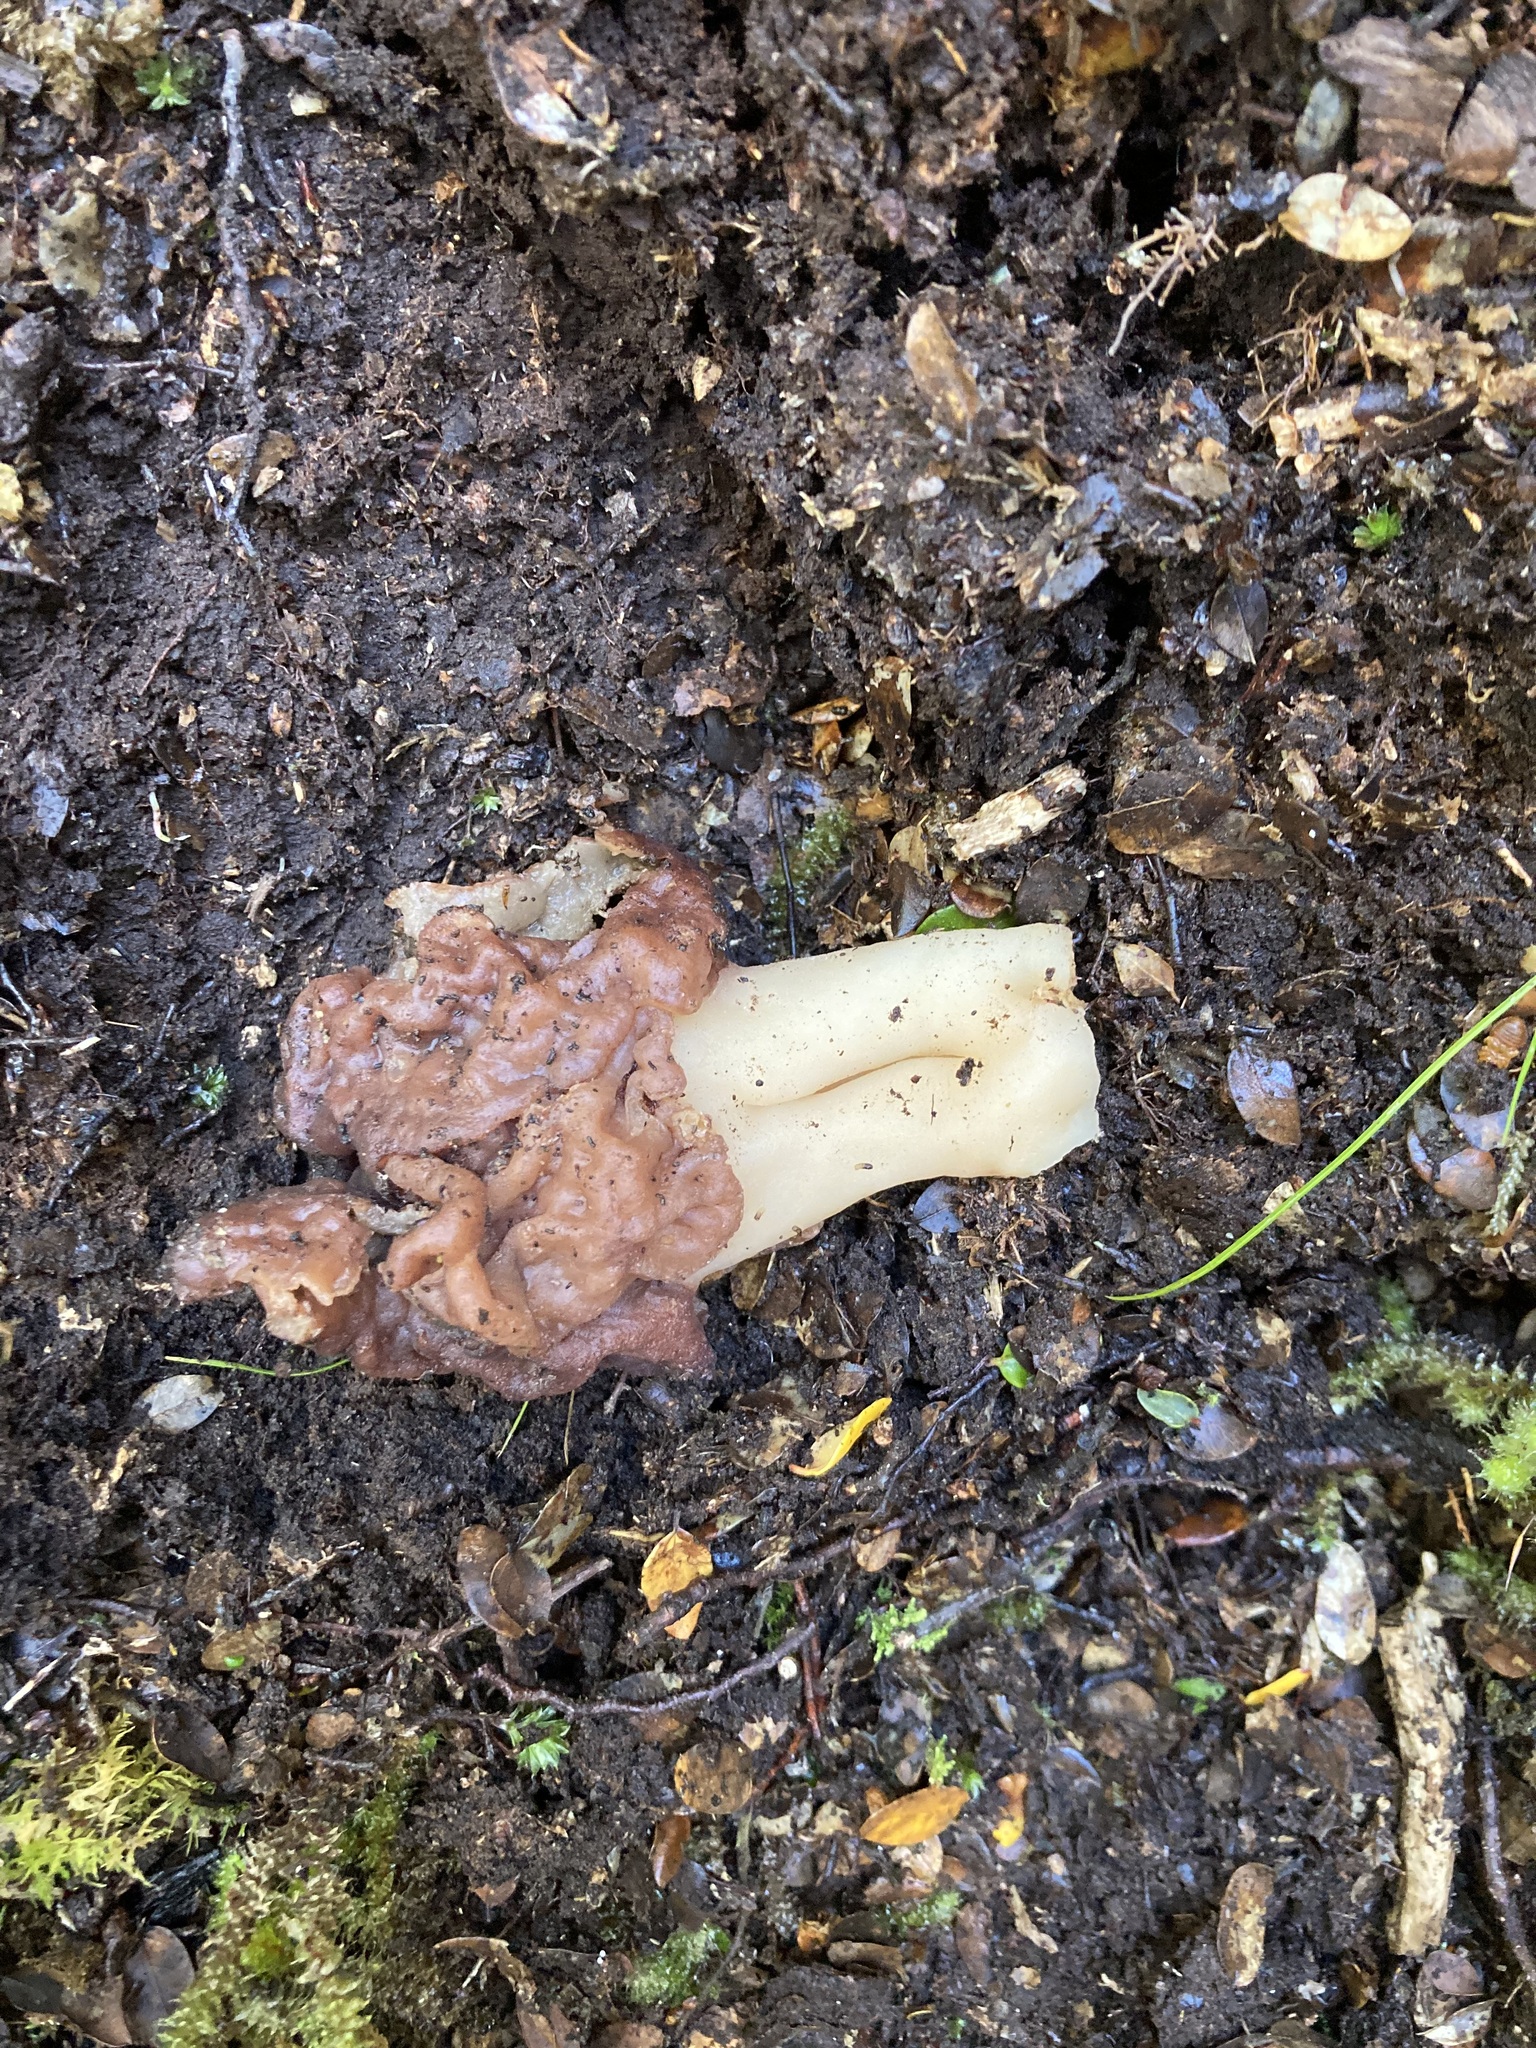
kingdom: Fungi
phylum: Ascomycota
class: Pezizomycetes
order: Pezizales
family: Discinaceae
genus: Gyromitra
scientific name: Gyromitra tasmanica
